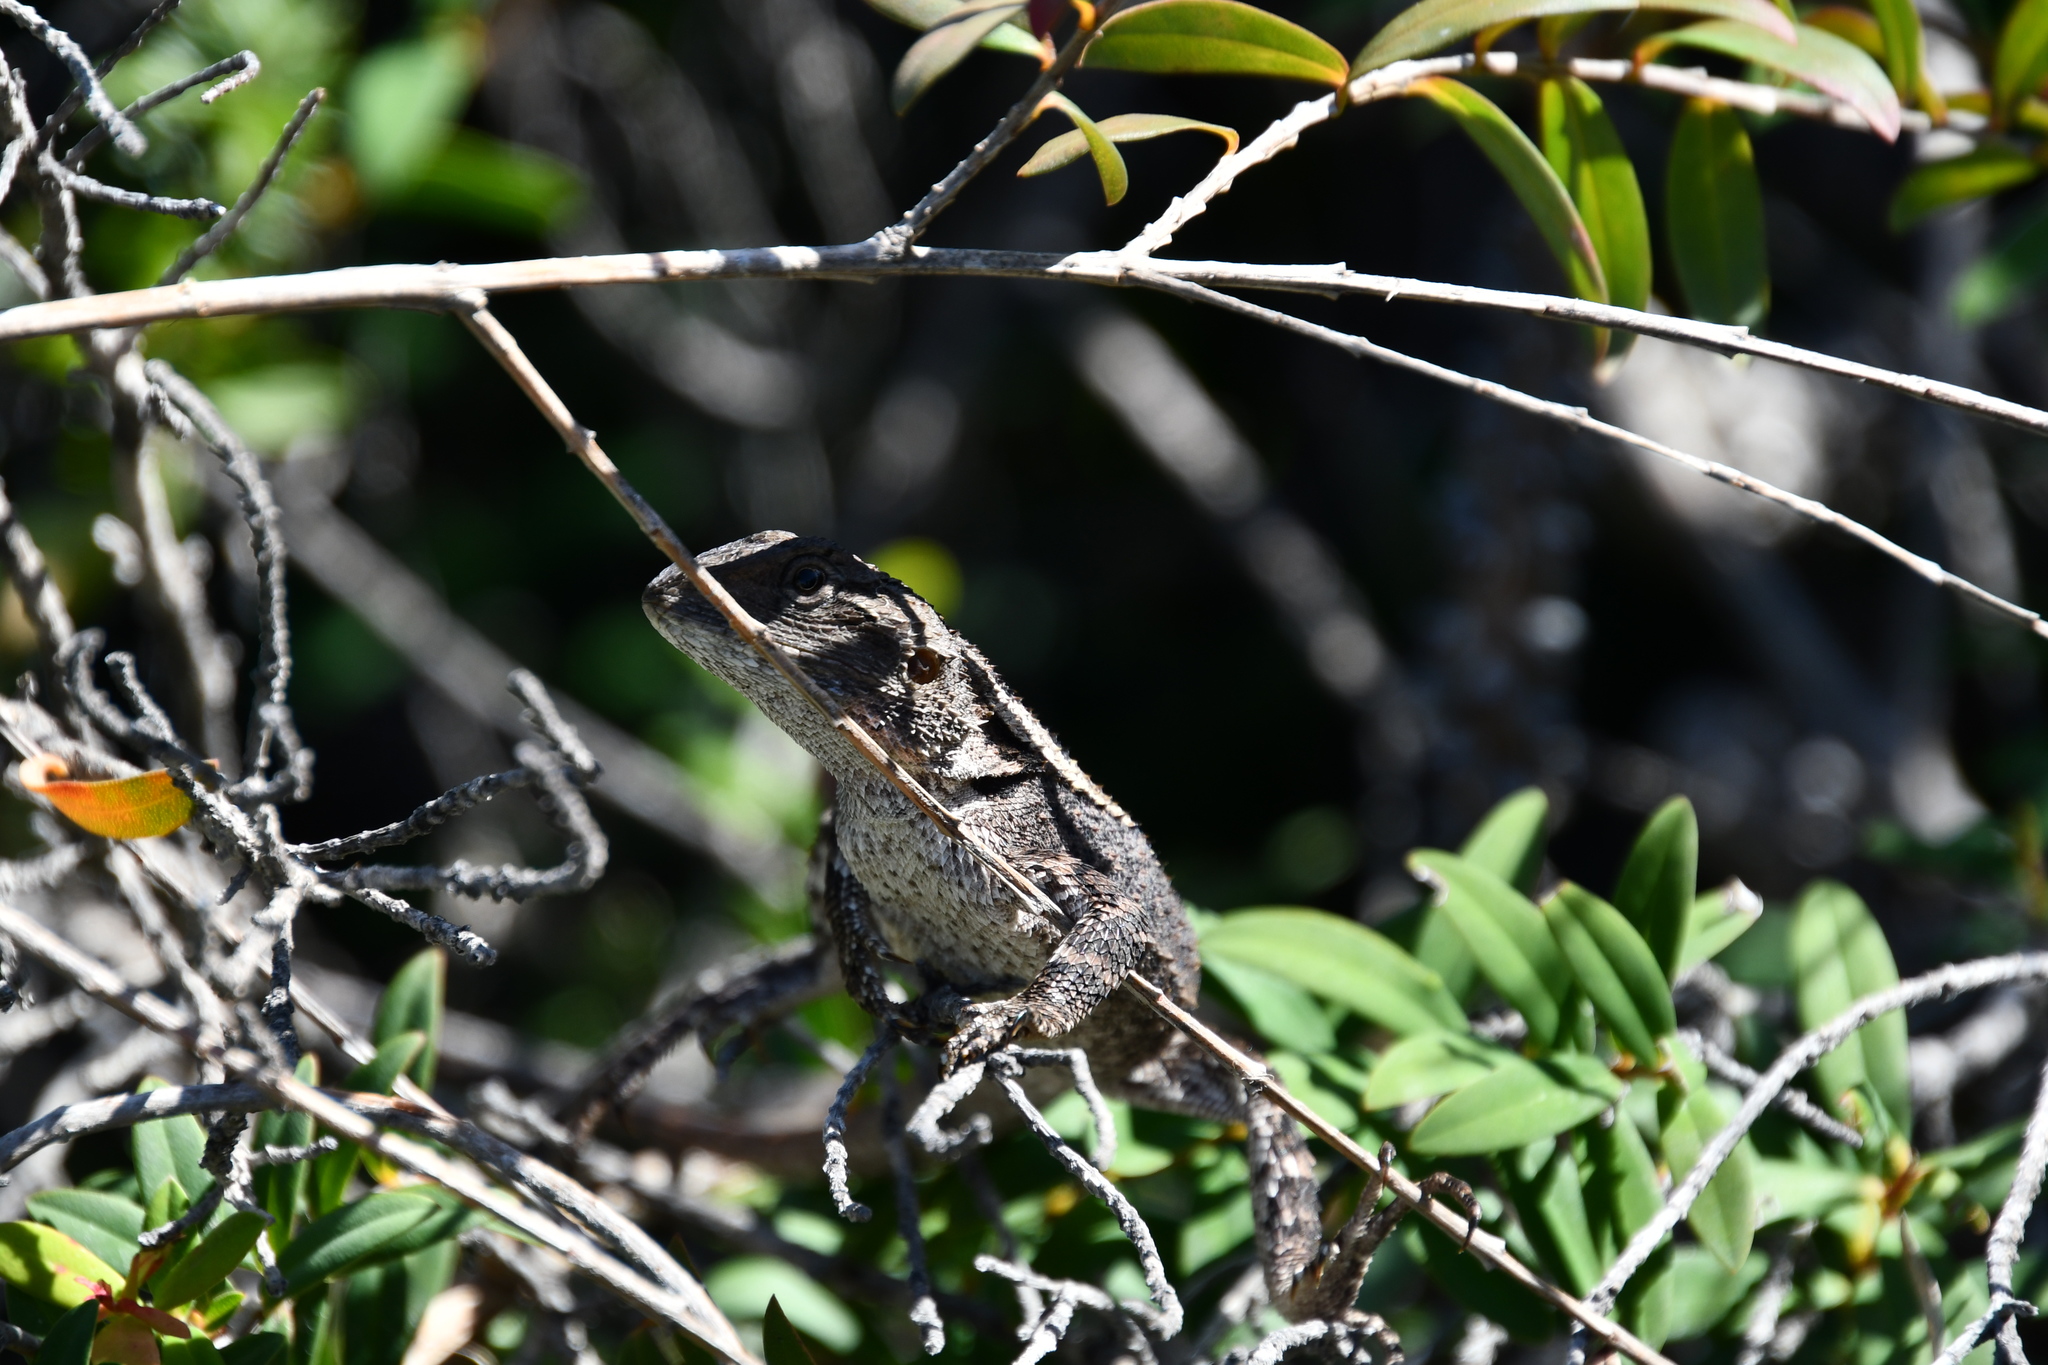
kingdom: Animalia
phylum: Chordata
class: Squamata
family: Agamidae
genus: Amphibolurus
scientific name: Amphibolurus muricatus
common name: Jacky lizard
